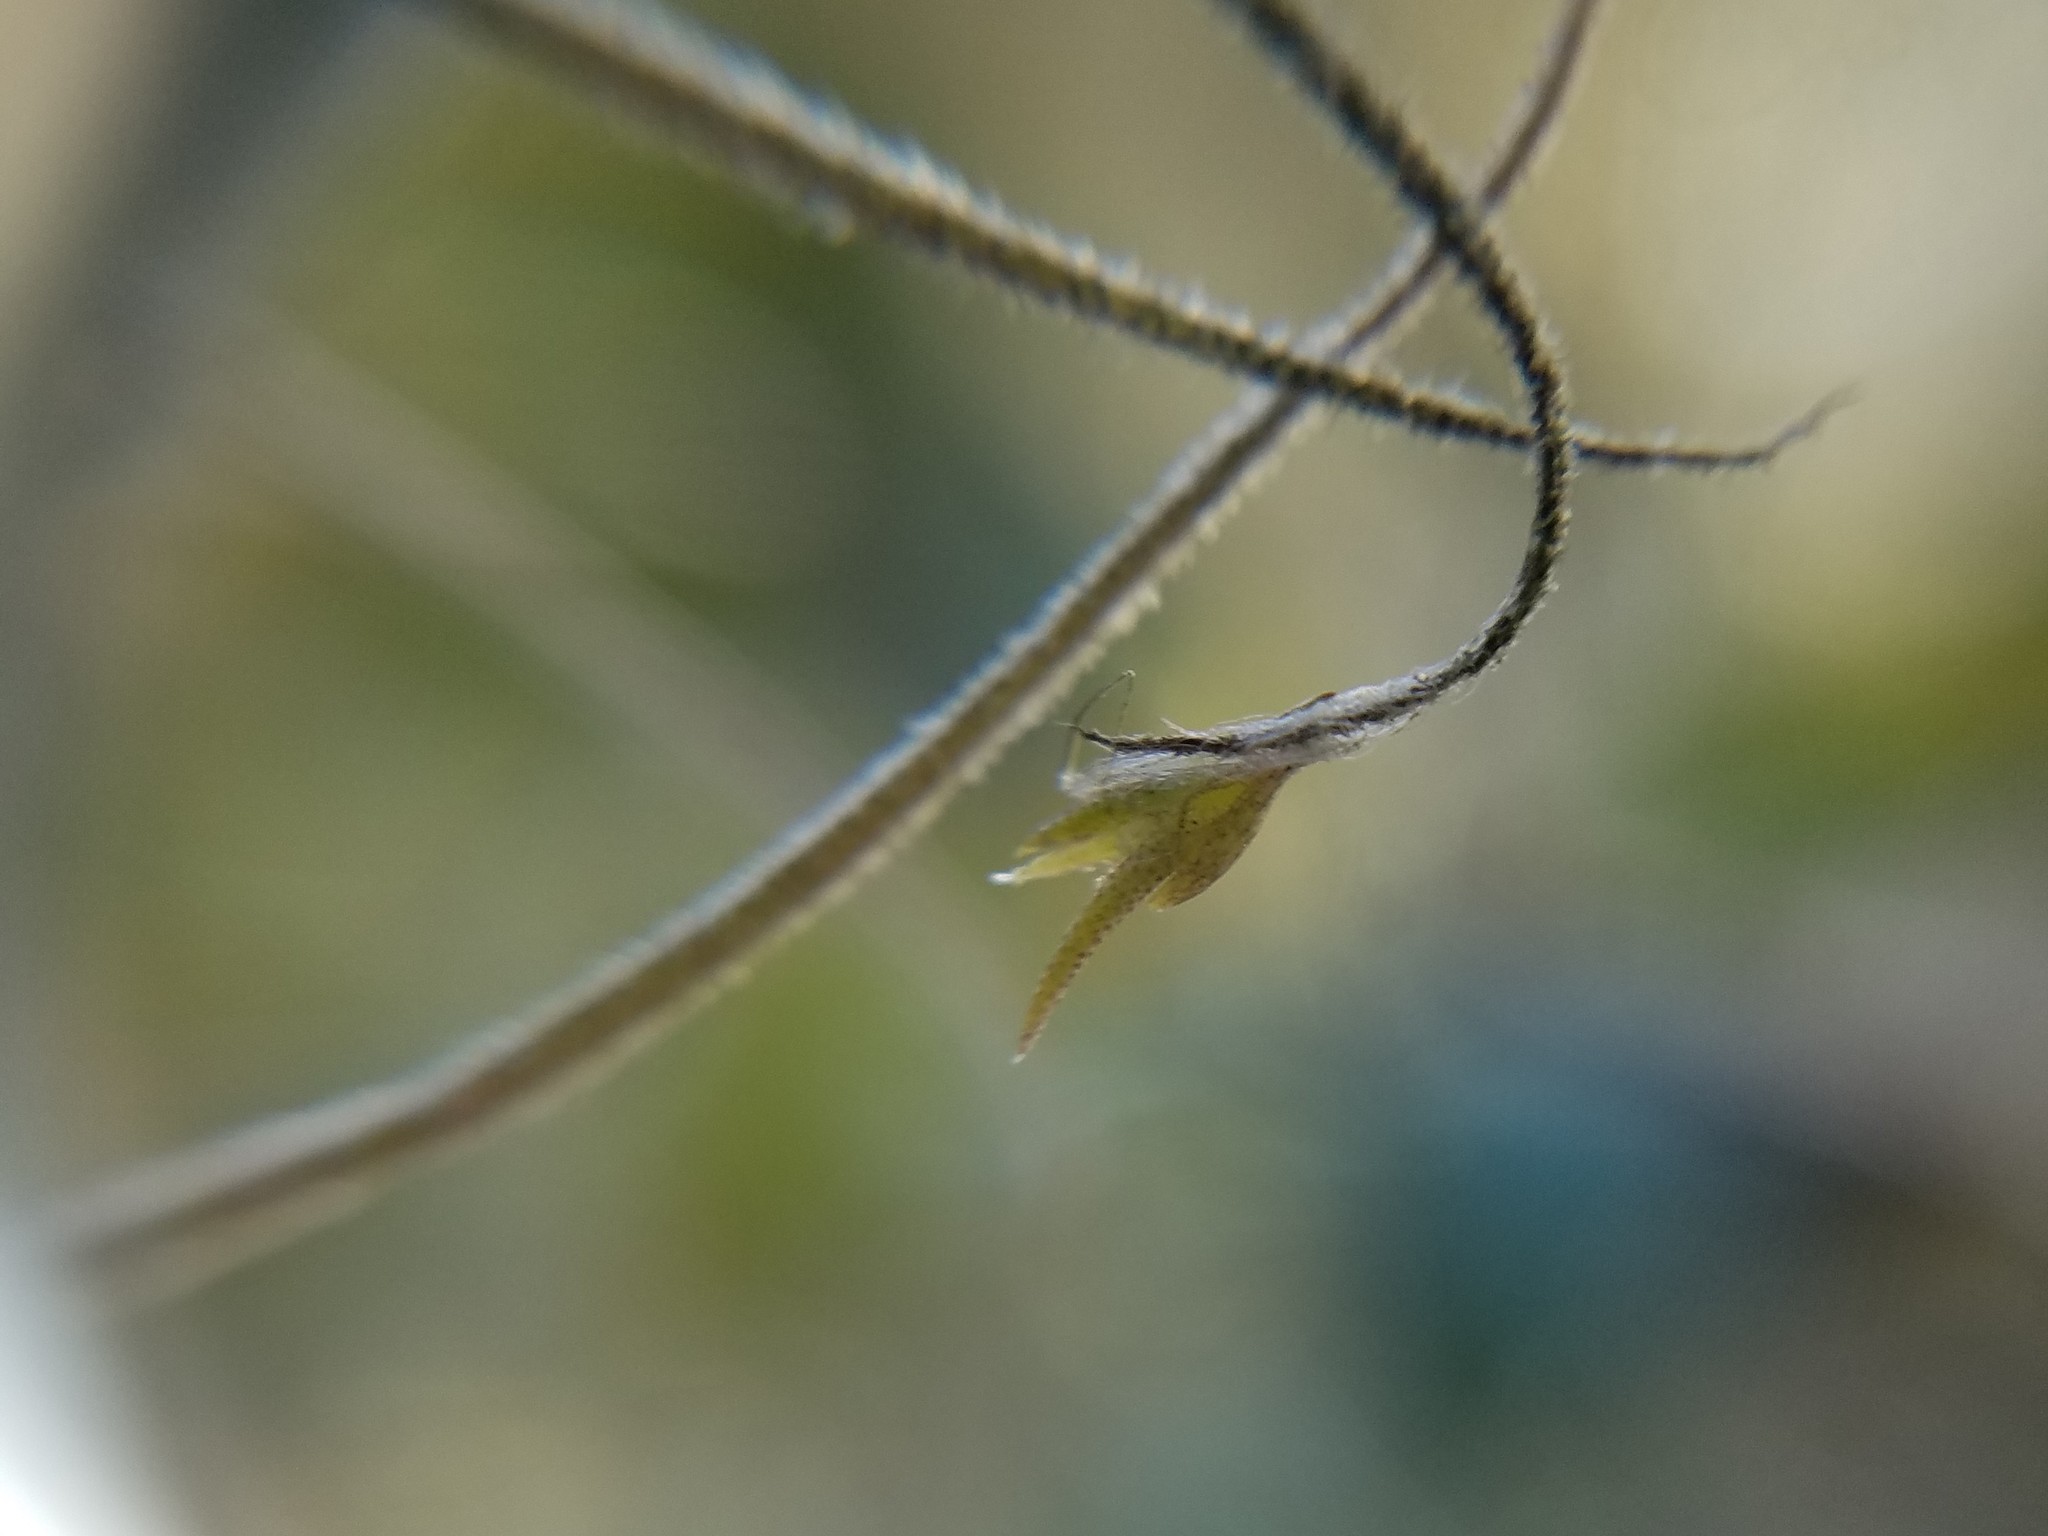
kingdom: Plantae
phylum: Tracheophyta
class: Liliopsida
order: Poales
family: Bromeliaceae
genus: Tillandsia
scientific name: Tillandsia recurvata
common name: Small ballmoss
